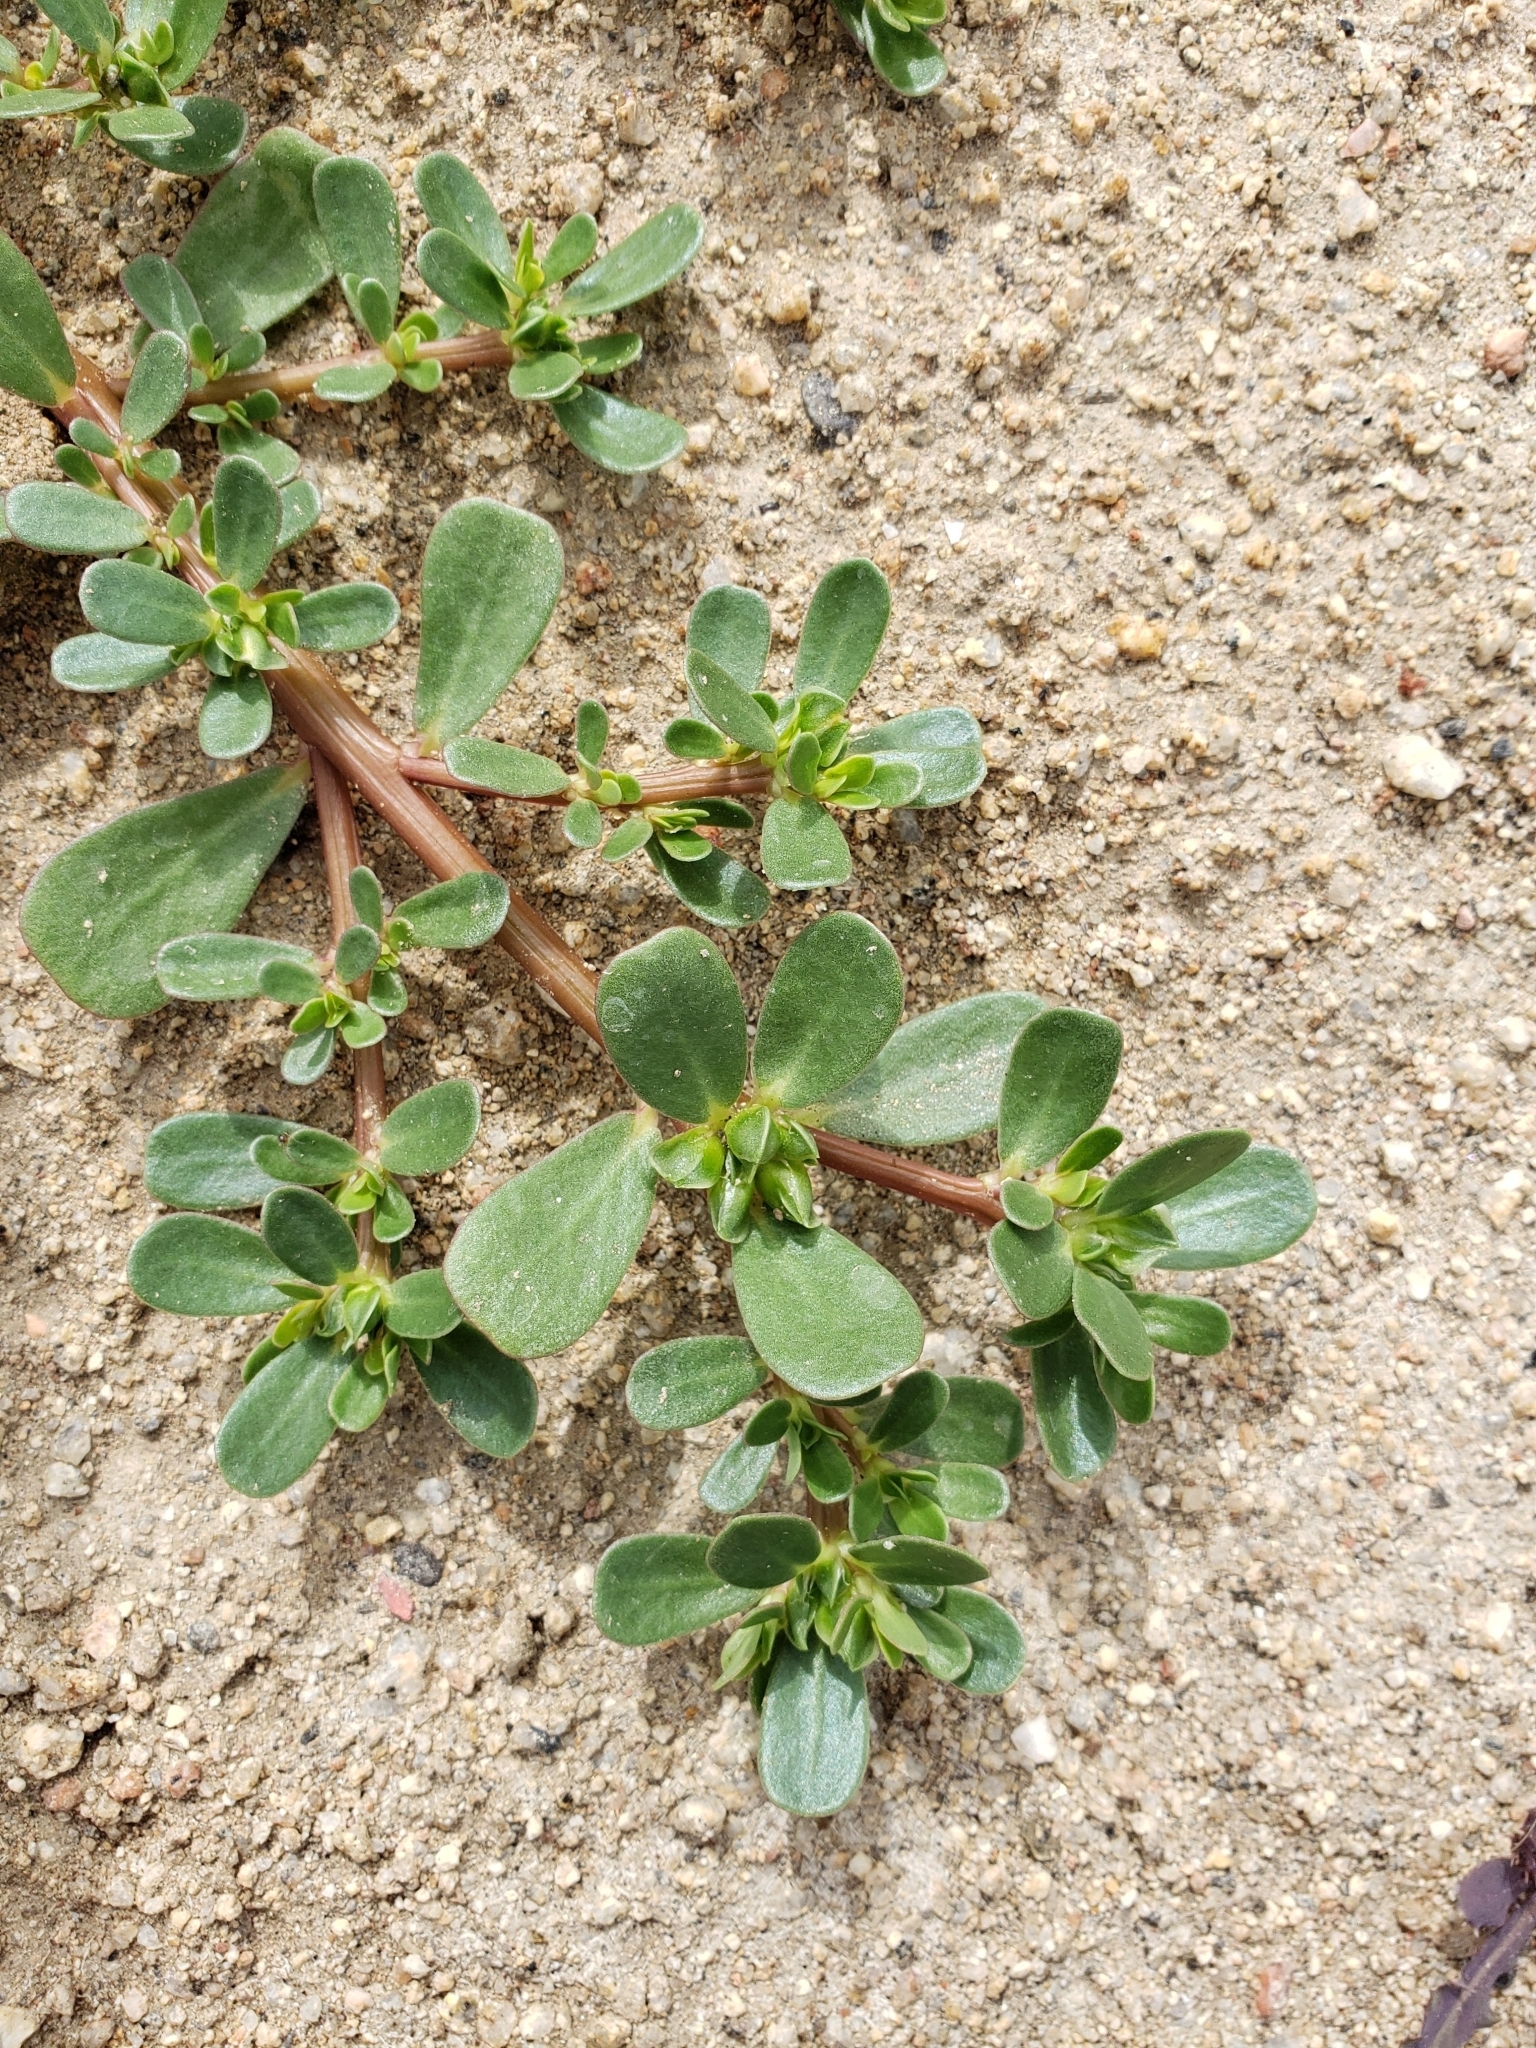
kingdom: Plantae
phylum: Tracheophyta
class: Magnoliopsida
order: Caryophyllales
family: Portulacaceae
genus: Portulaca
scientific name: Portulaca oleracea
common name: Common purslane
